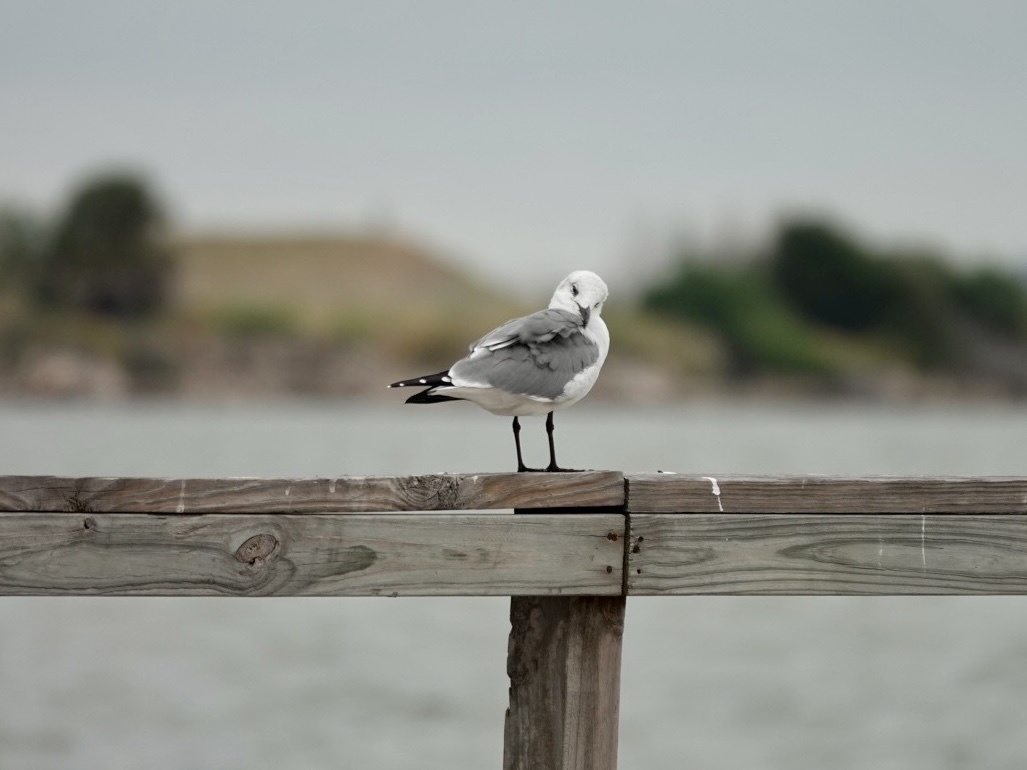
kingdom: Animalia
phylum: Chordata
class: Aves
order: Charadriiformes
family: Laridae
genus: Leucophaeus
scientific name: Leucophaeus atricilla
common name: Laughing gull
